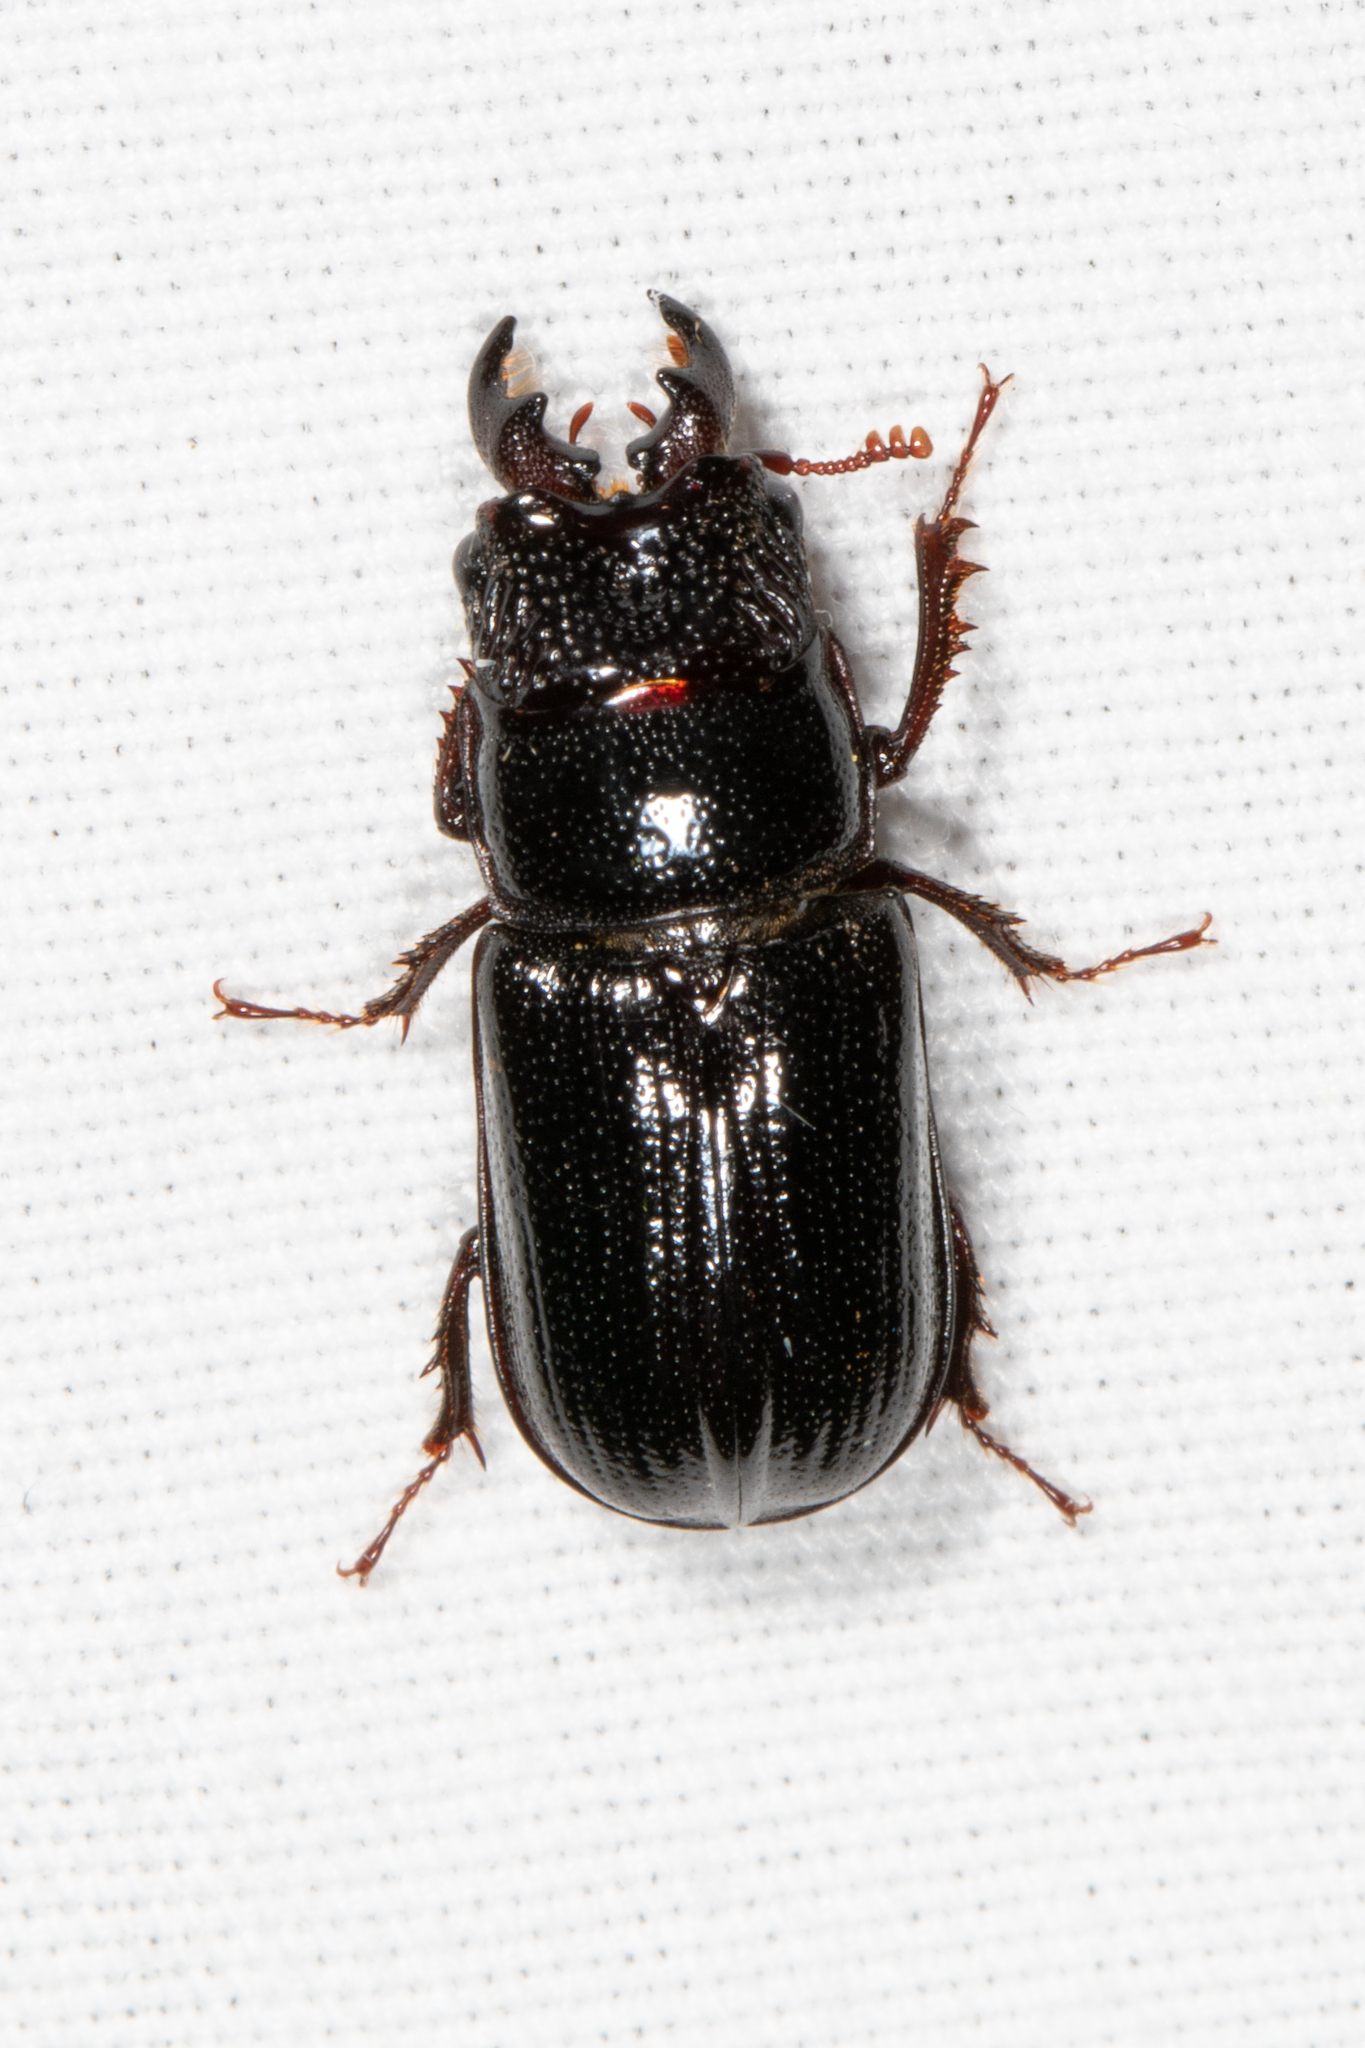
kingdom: Animalia
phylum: Arthropoda
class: Insecta
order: Coleoptera
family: Lucanidae
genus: Ceruchus
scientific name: Ceruchus piceus
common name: Red-rot decay stag beetle
